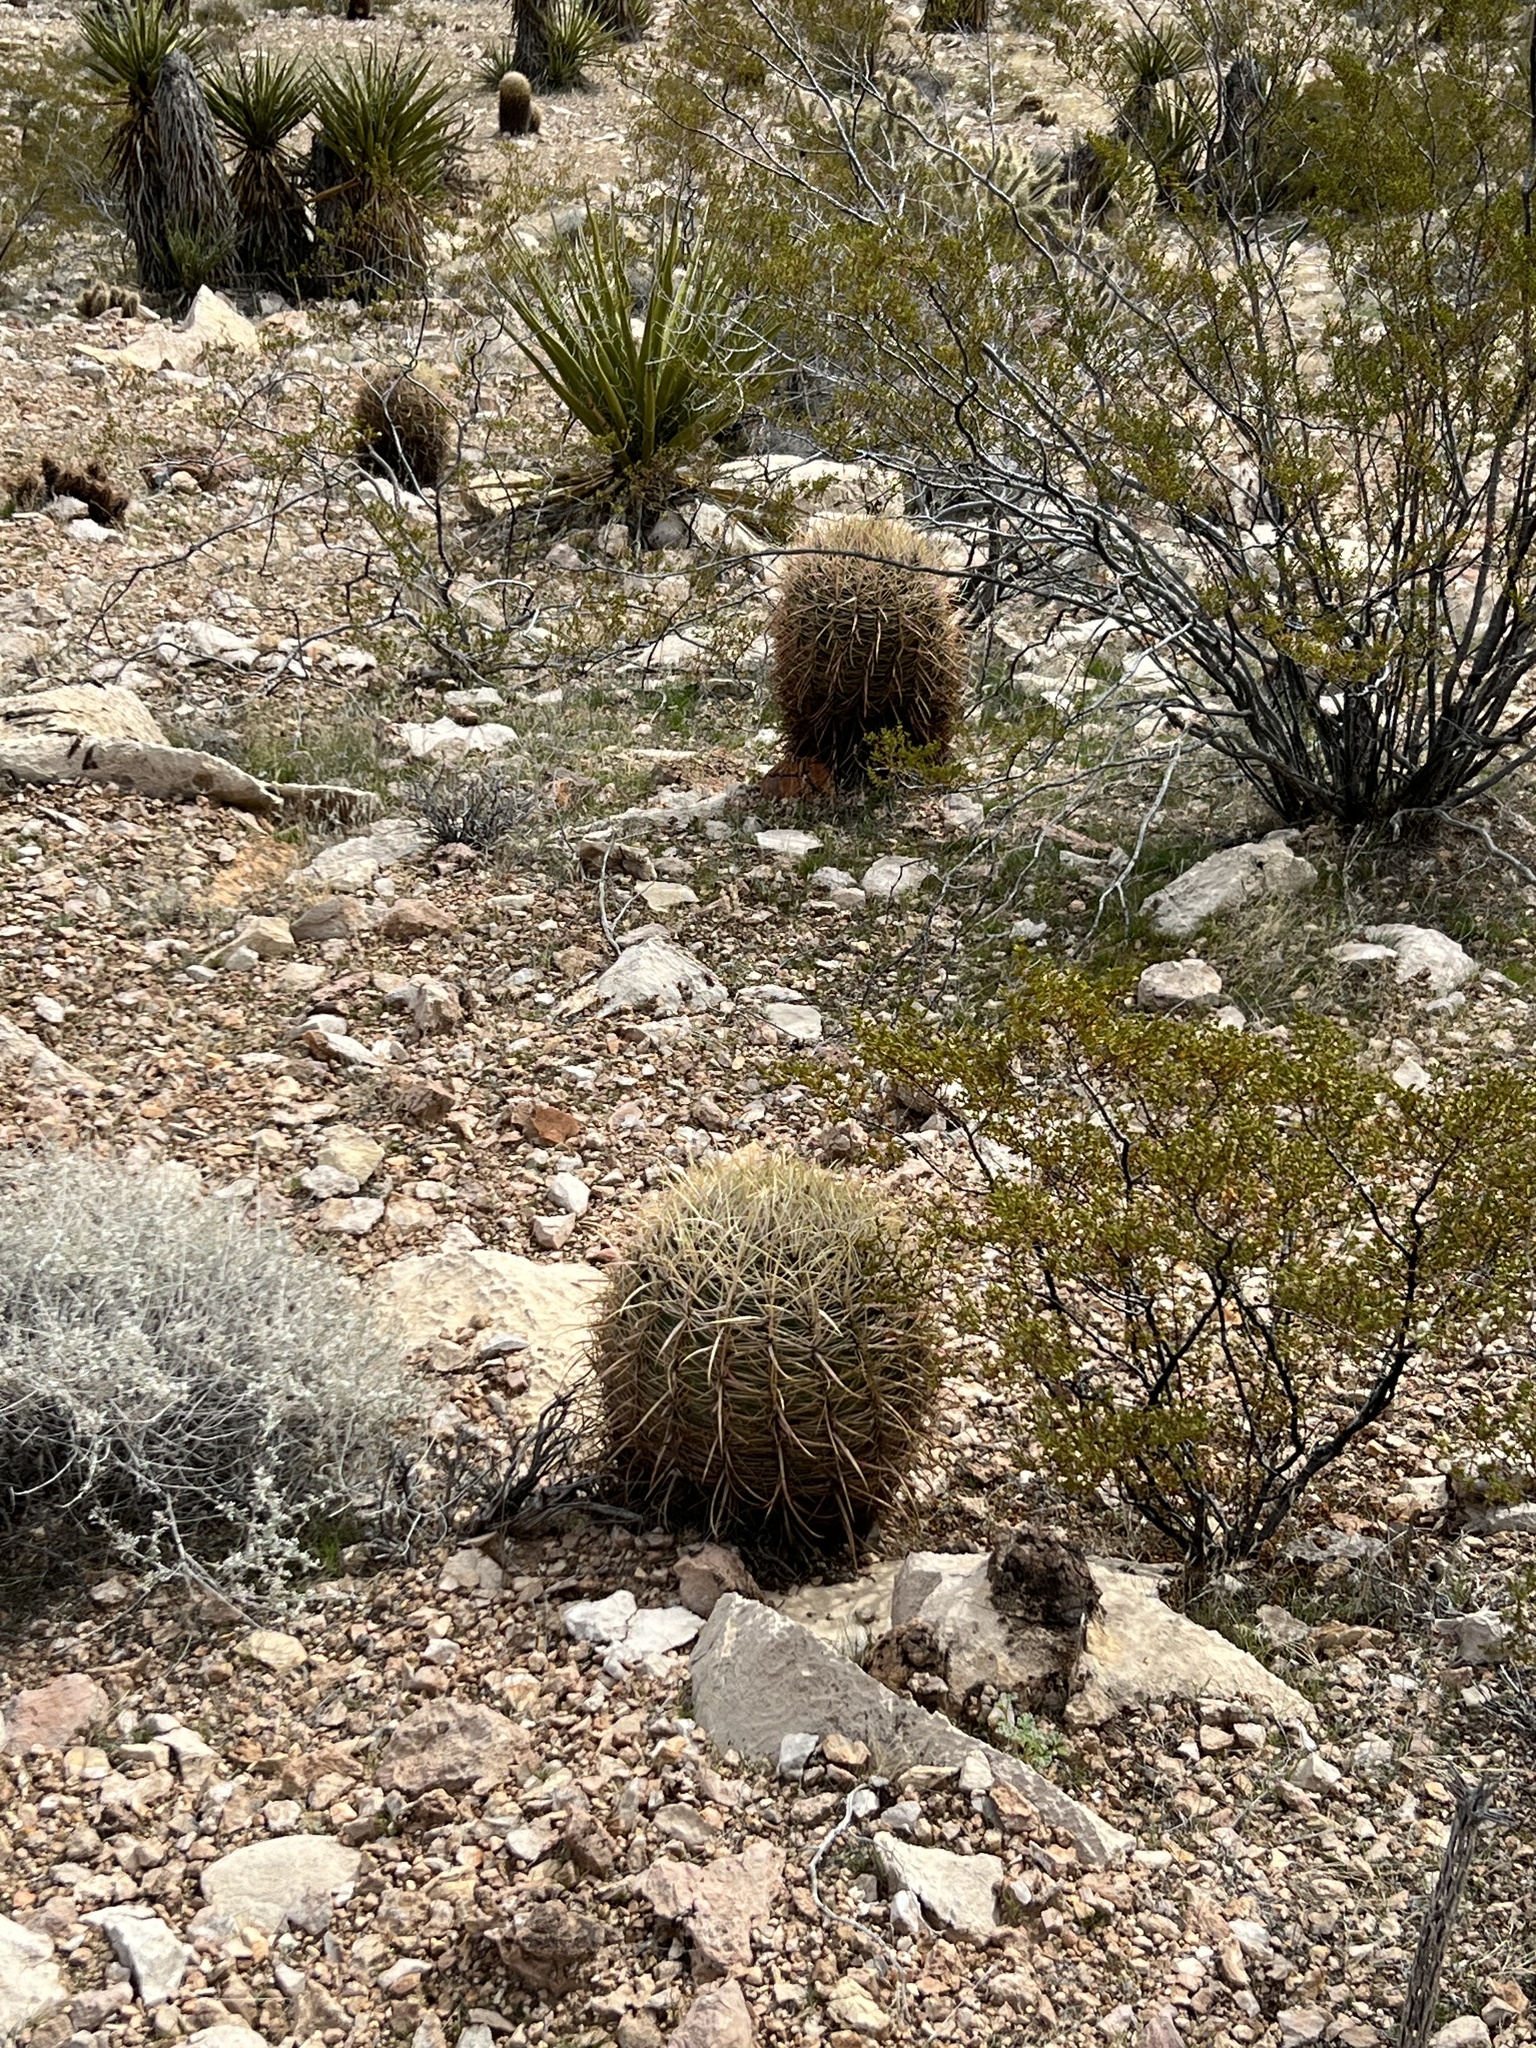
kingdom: Plantae
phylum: Tracheophyta
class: Magnoliopsida
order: Caryophyllales
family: Cactaceae
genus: Ferocactus
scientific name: Ferocactus cylindraceus
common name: California barrel cactus
